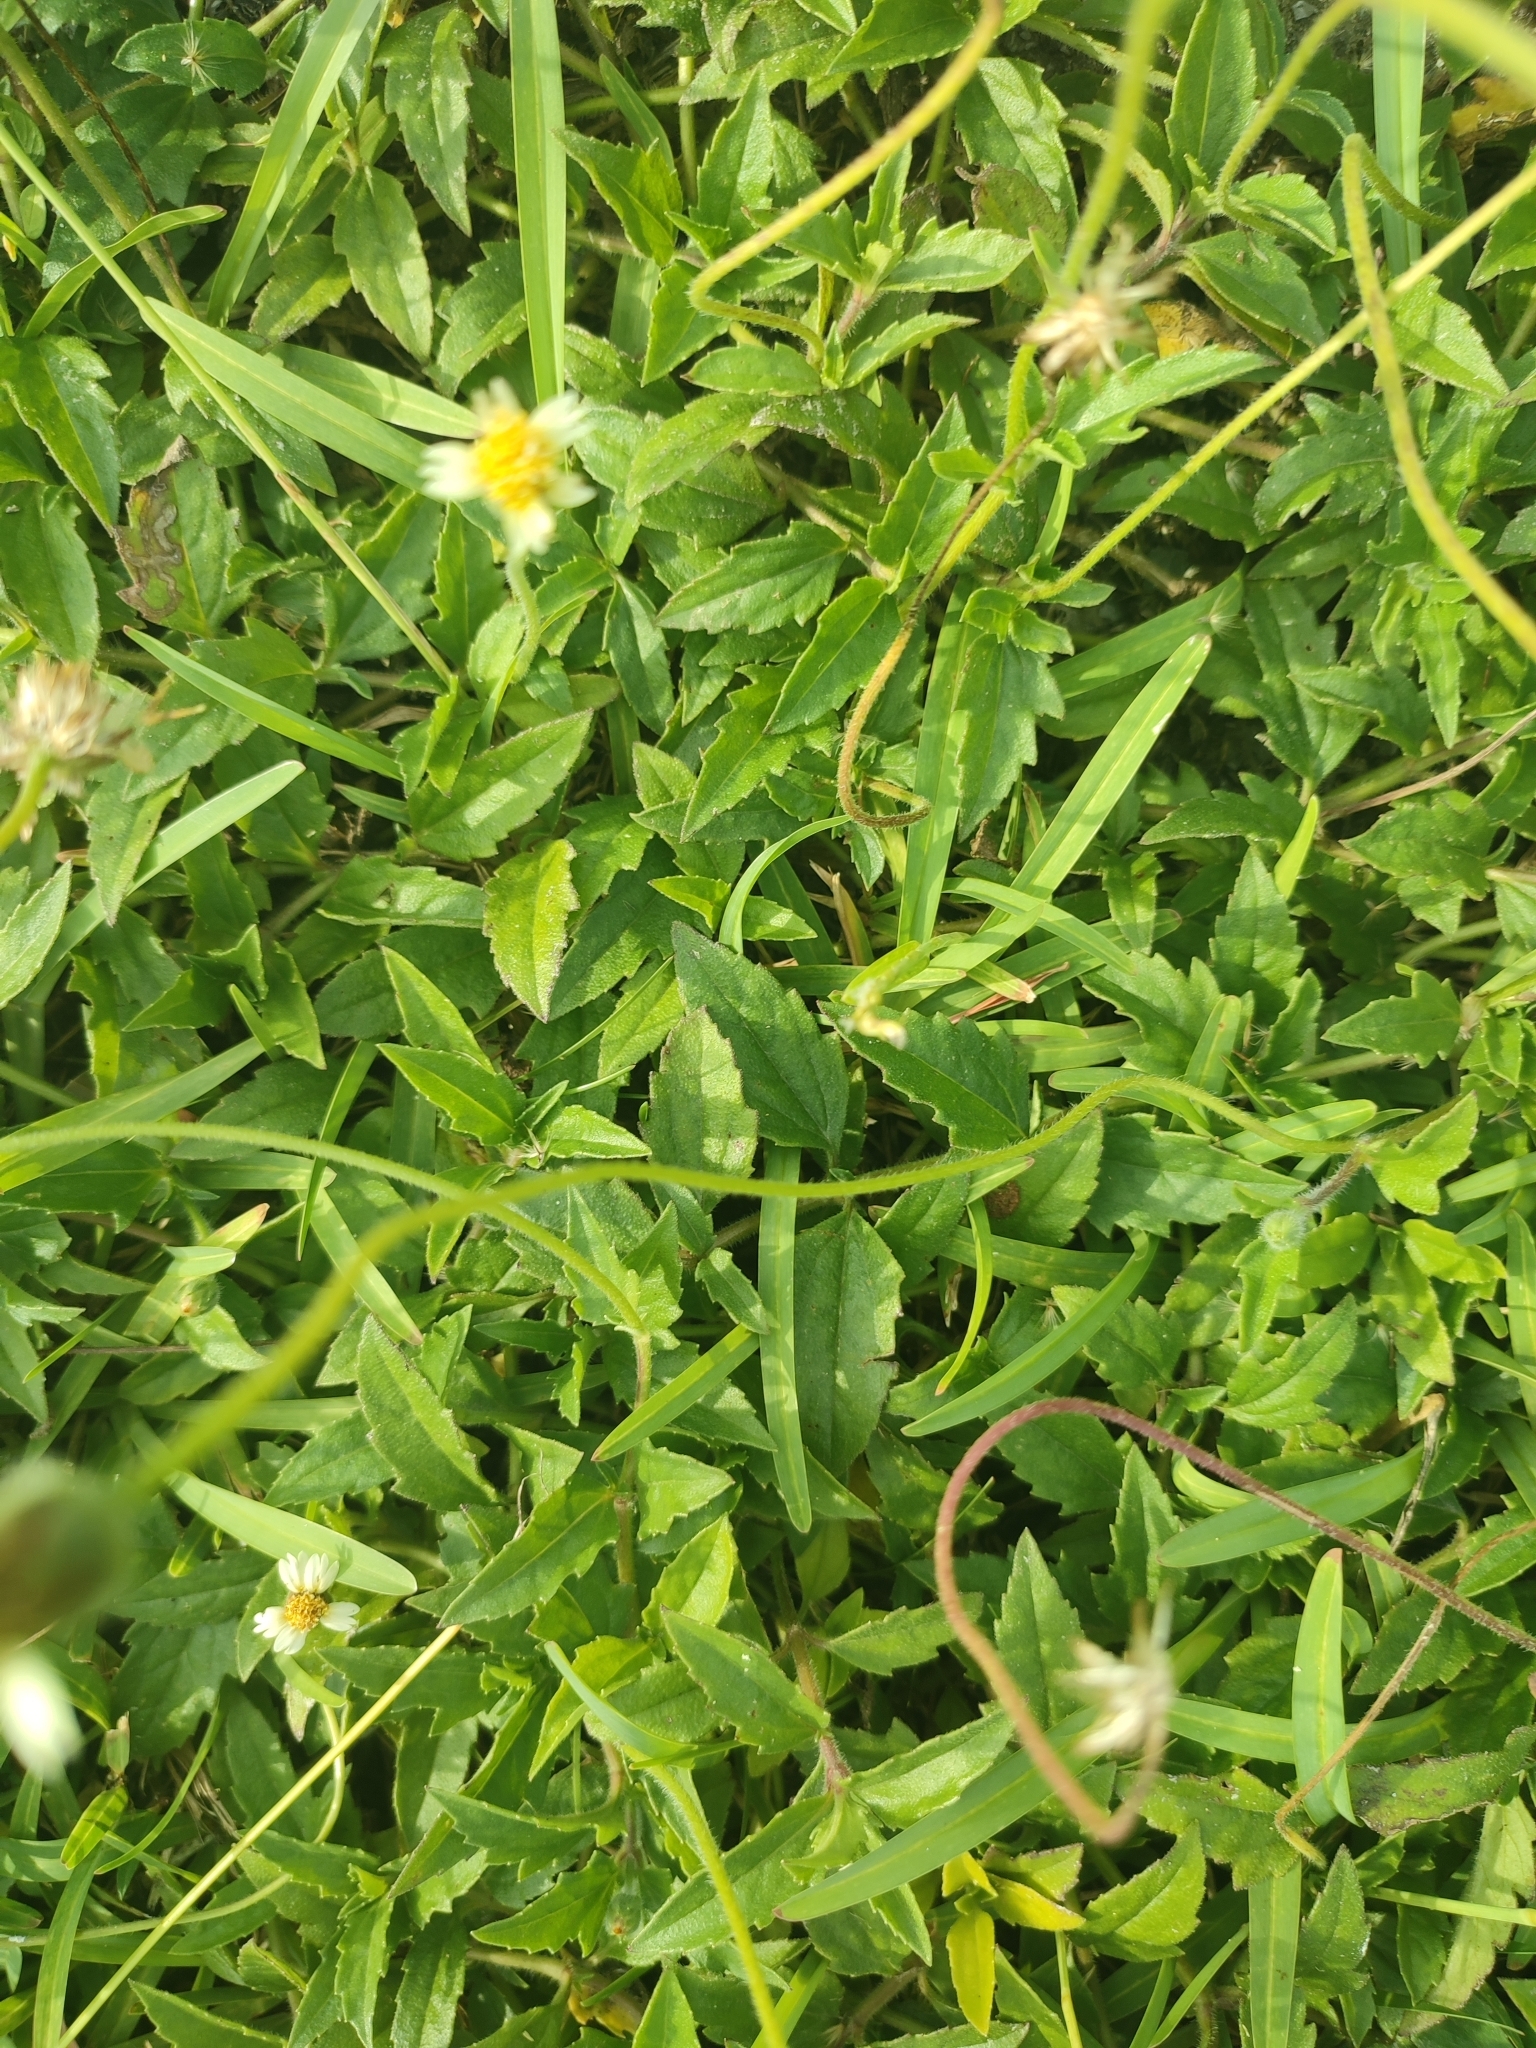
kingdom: Plantae
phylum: Tracheophyta
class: Magnoliopsida
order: Asterales
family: Asteraceae
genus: Tridax
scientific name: Tridax procumbens
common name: Coatbuttons
